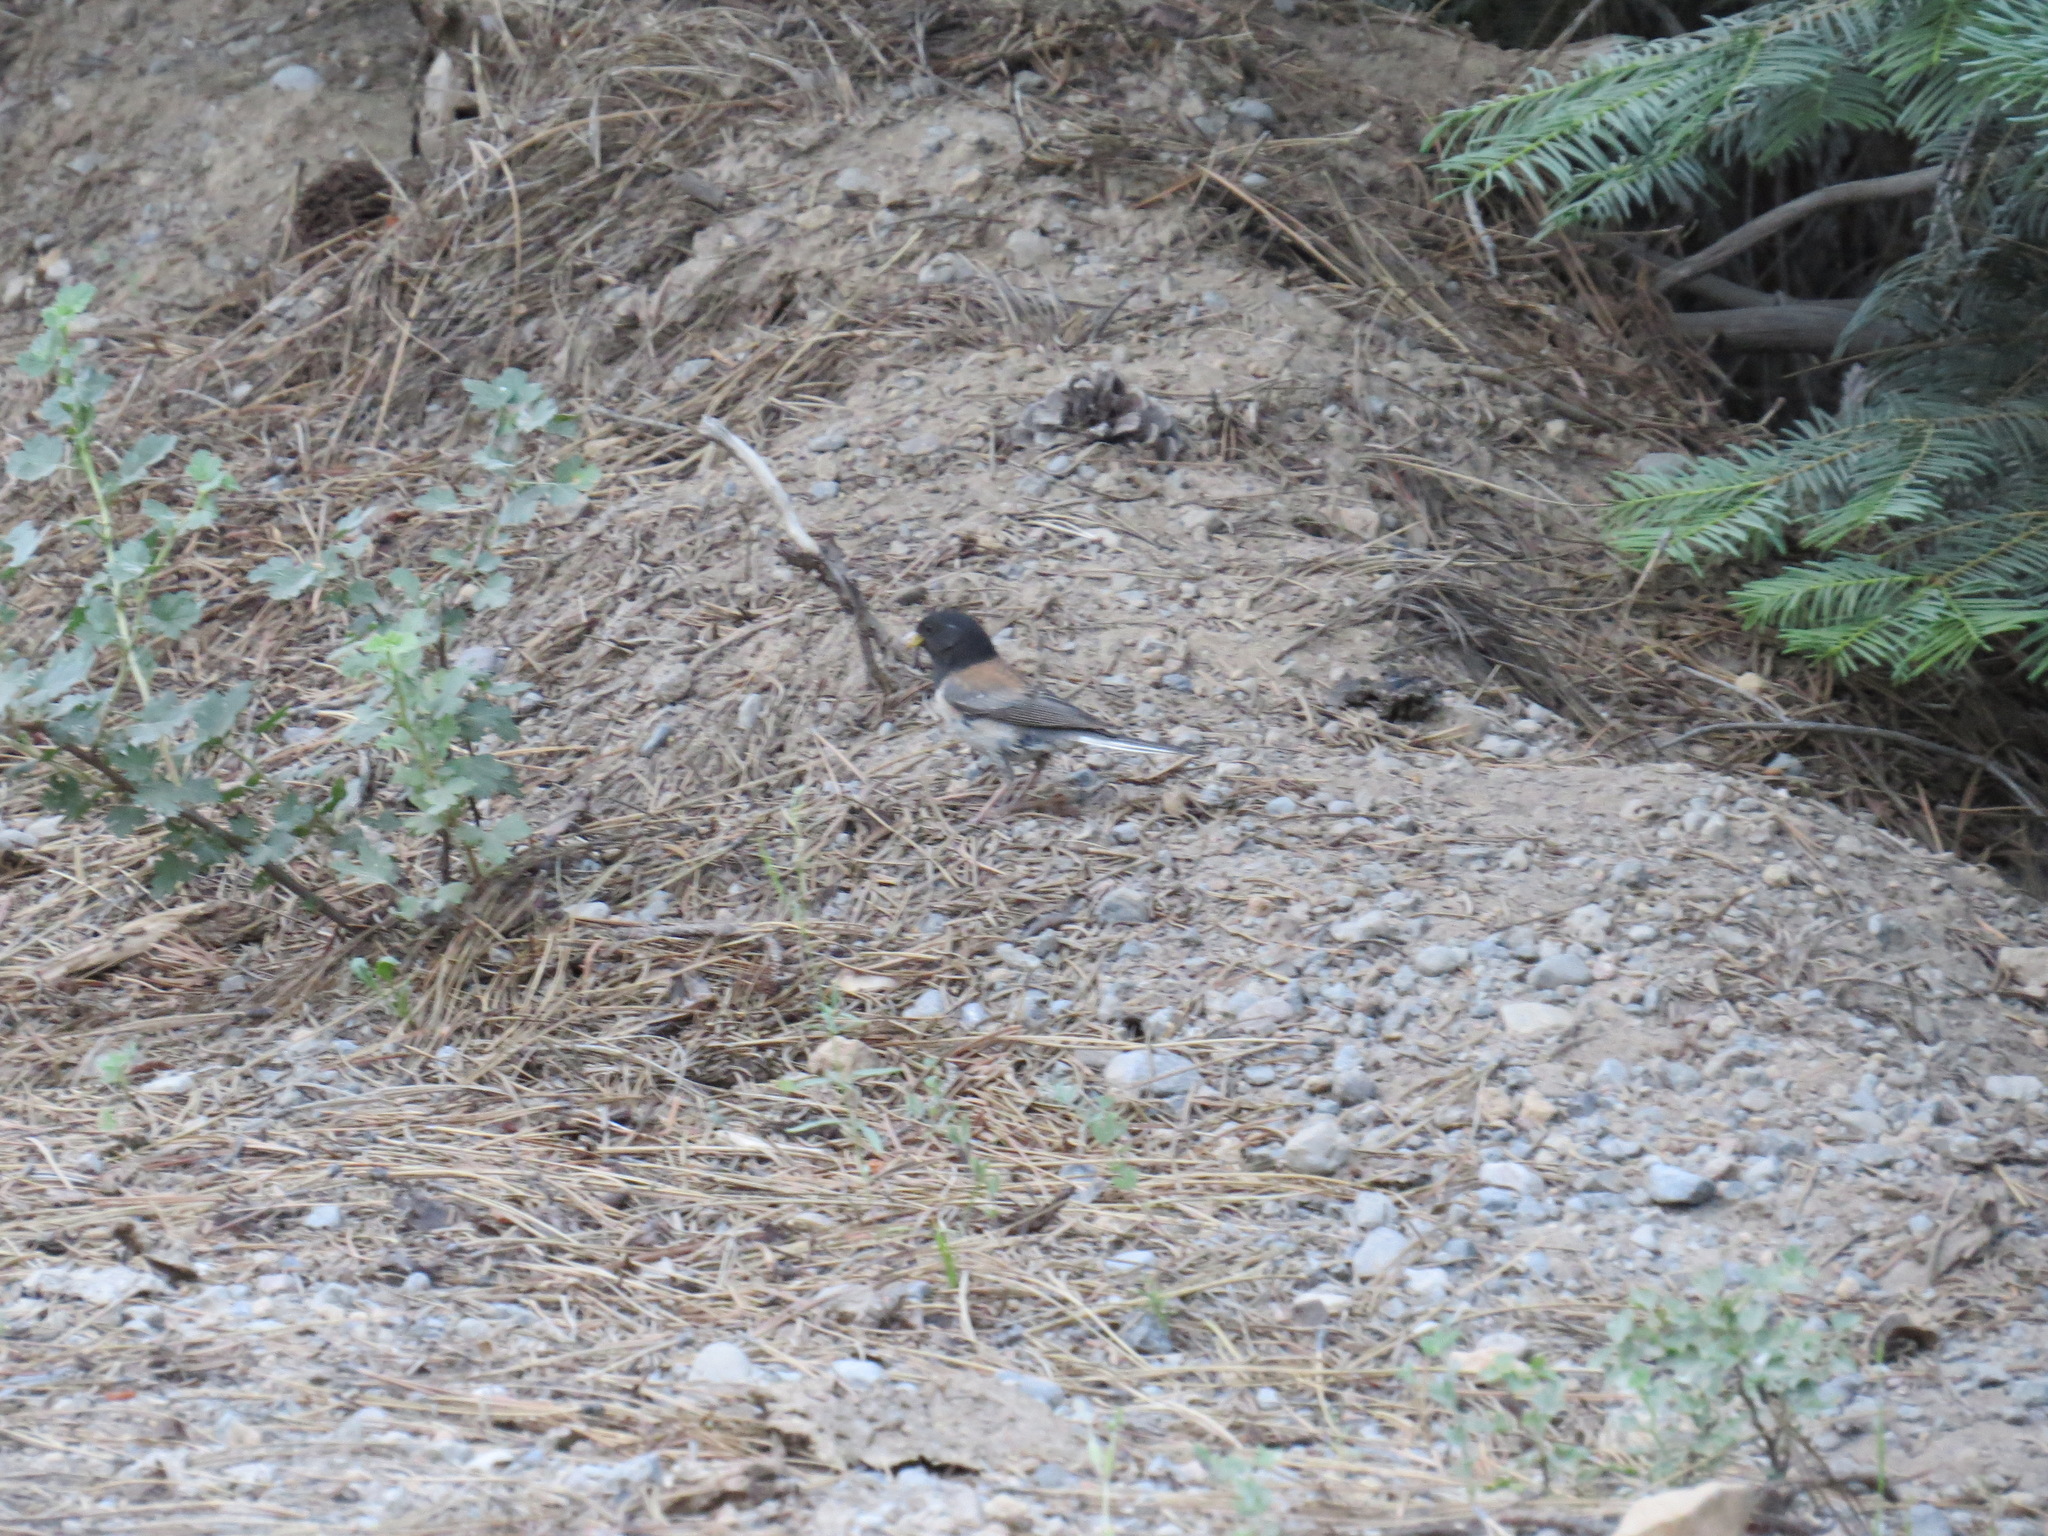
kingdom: Animalia
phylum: Chordata
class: Aves
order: Passeriformes
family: Passerellidae
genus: Junco
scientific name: Junco hyemalis
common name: Dark-eyed junco
